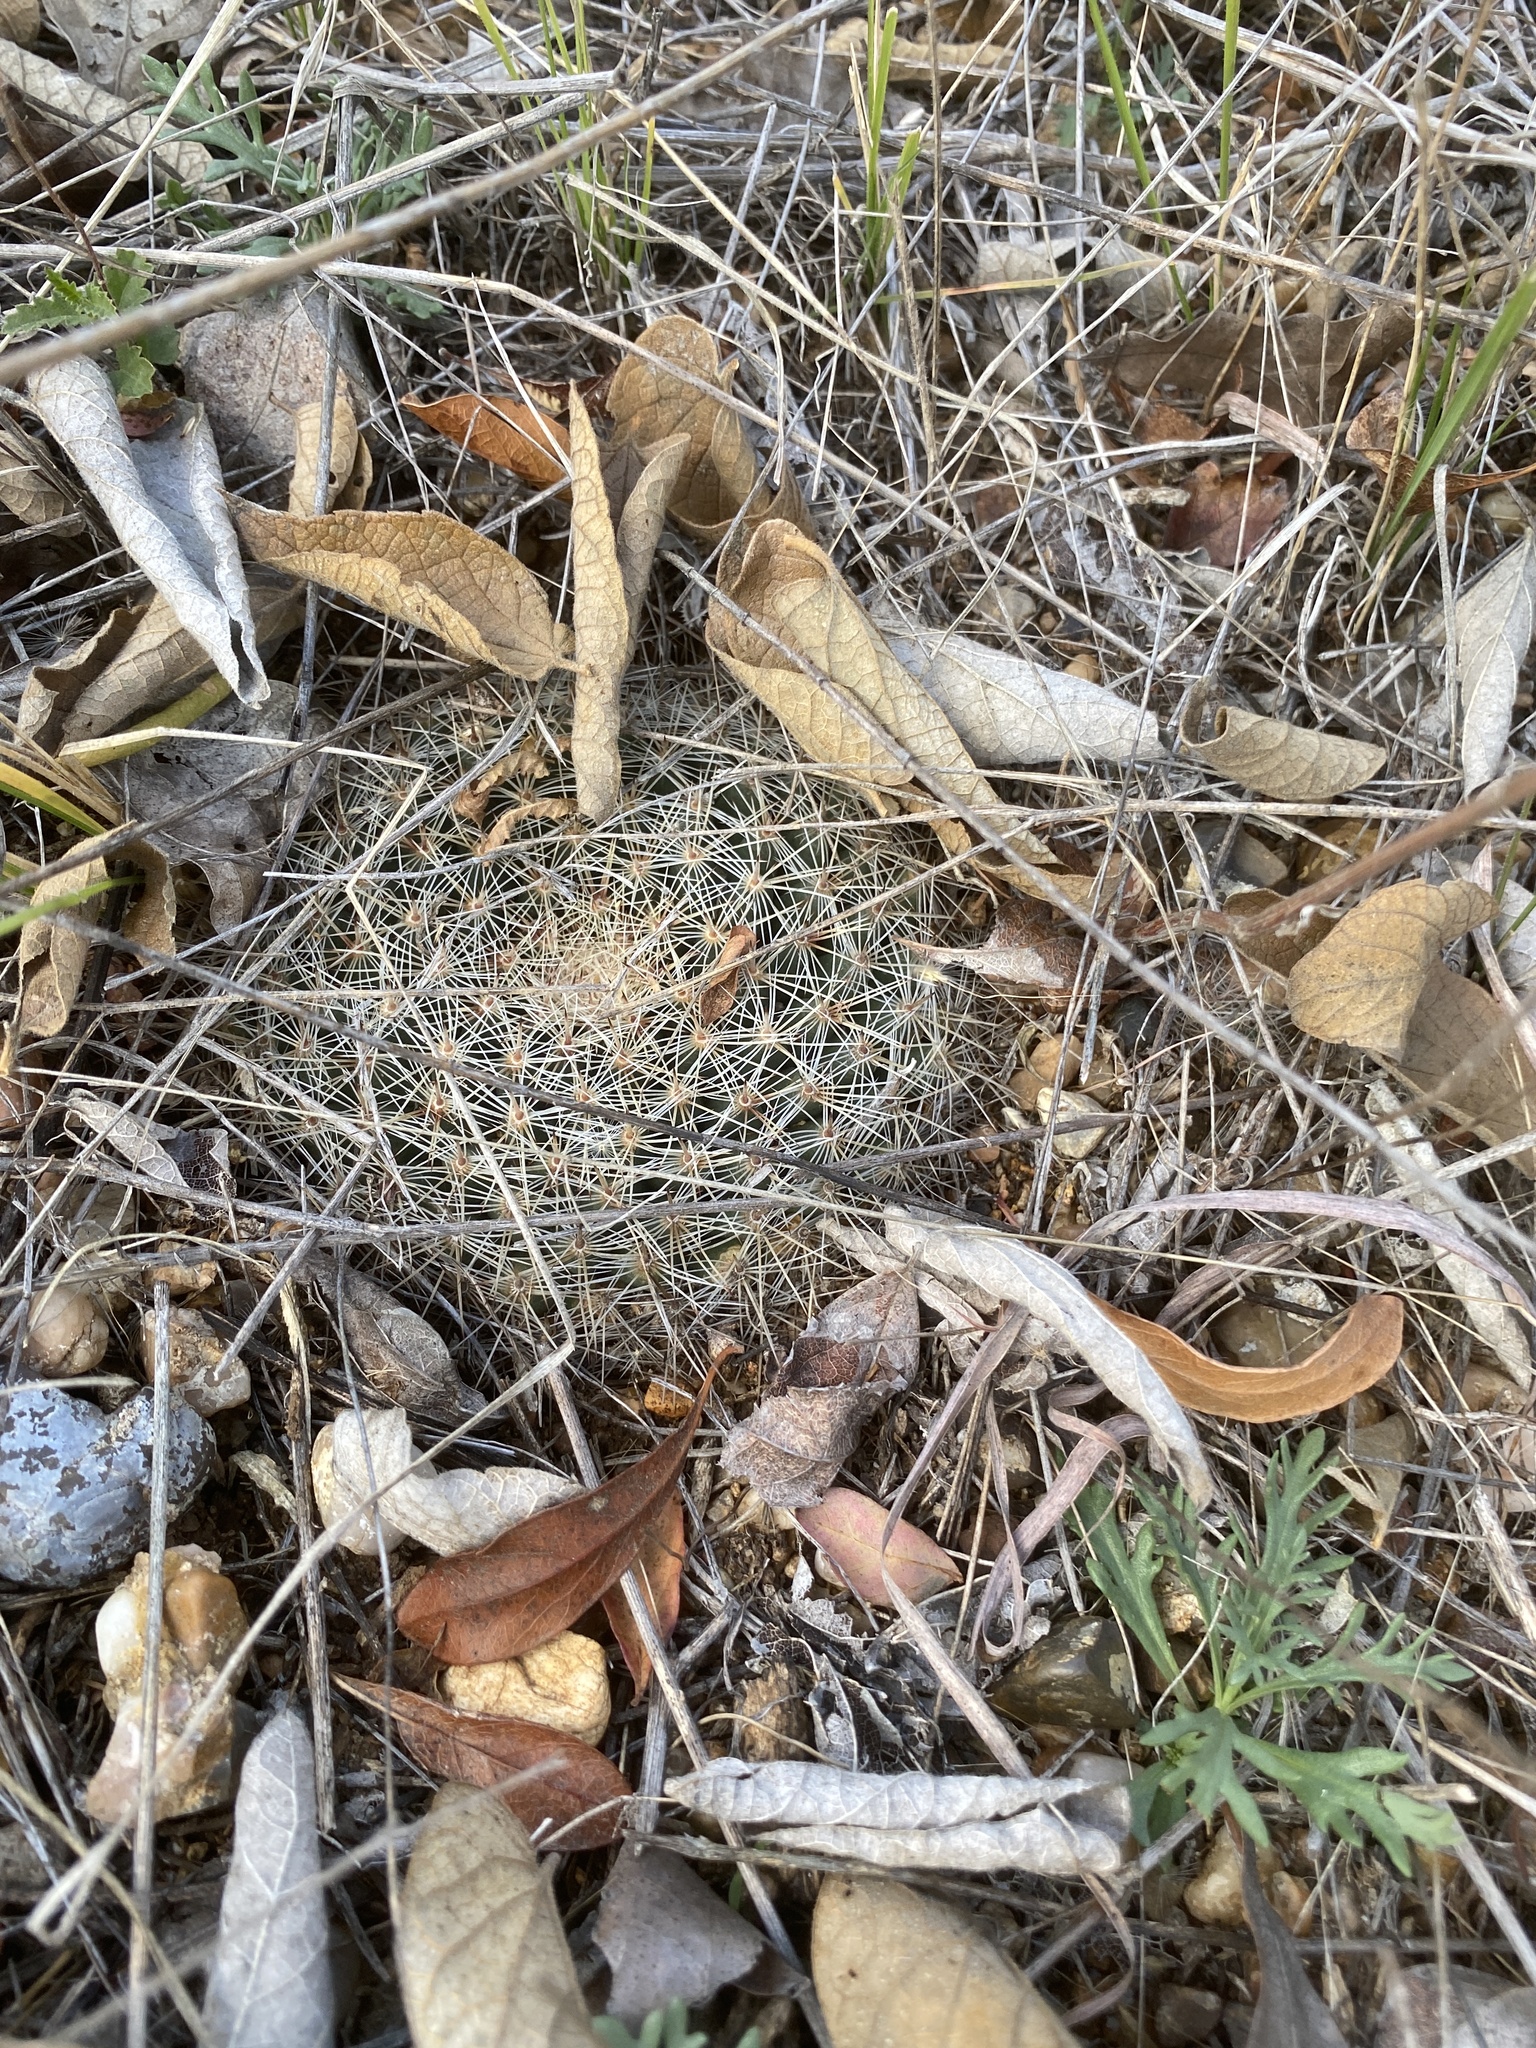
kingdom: Plantae
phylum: Tracheophyta
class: Magnoliopsida
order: Caryophyllales
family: Cactaceae
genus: Mammillaria
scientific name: Mammillaria heyderi
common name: Little nipple cactus
